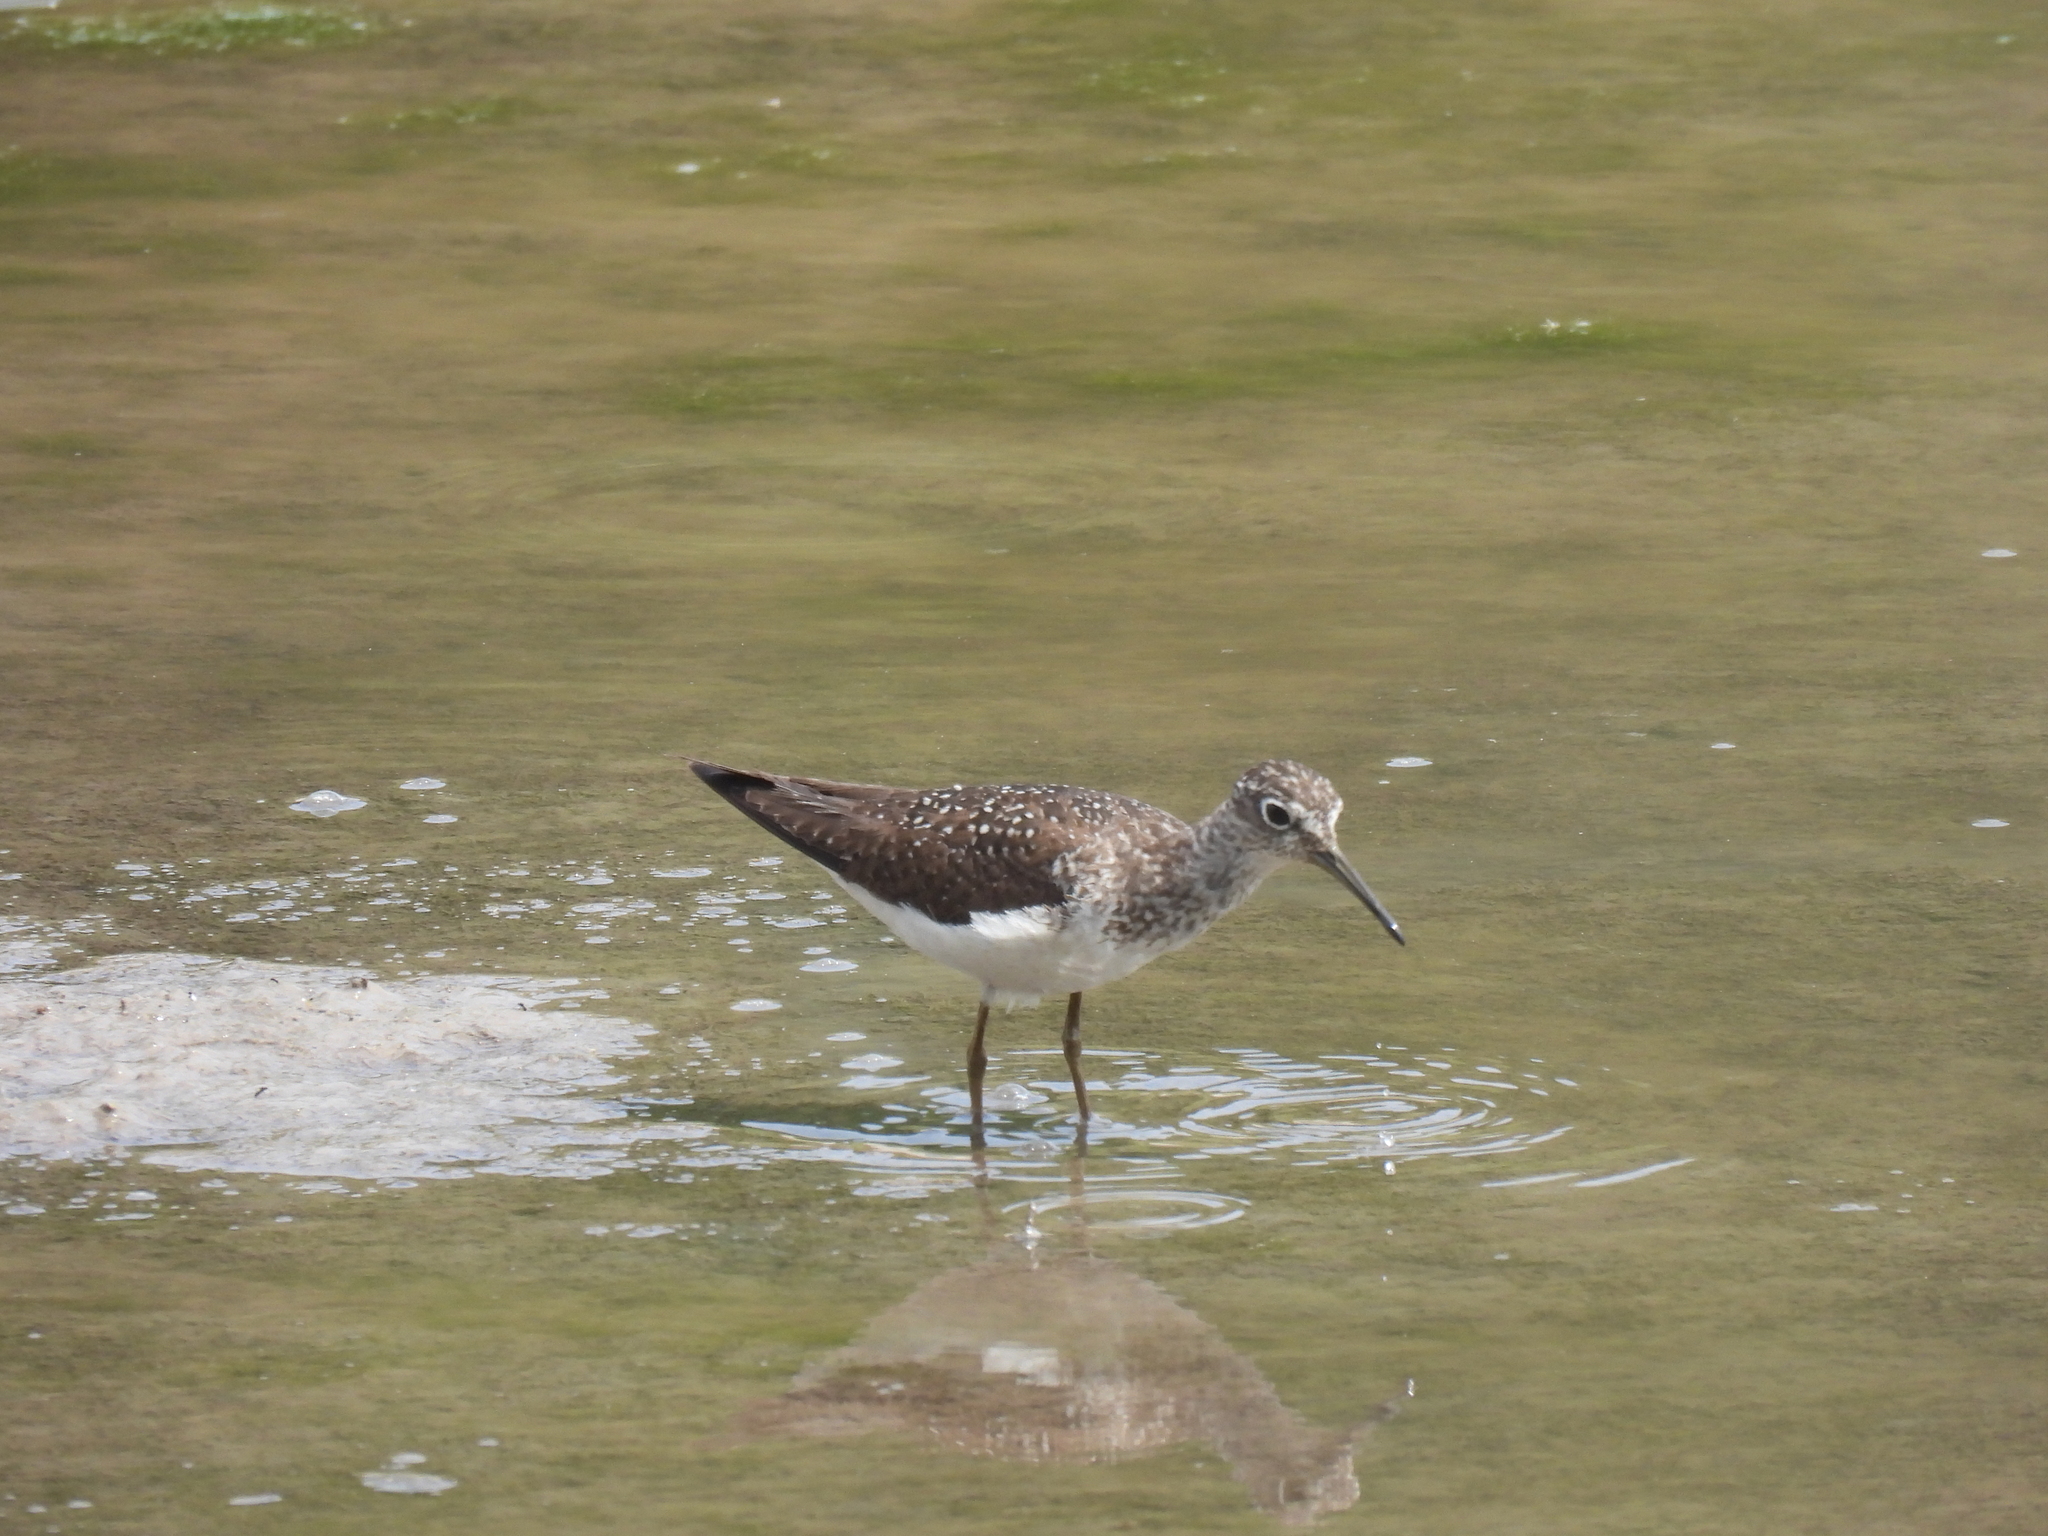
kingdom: Animalia
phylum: Chordata
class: Aves
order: Charadriiformes
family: Scolopacidae
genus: Tringa
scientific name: Tringa solitaria
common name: Solitary sandpiper
